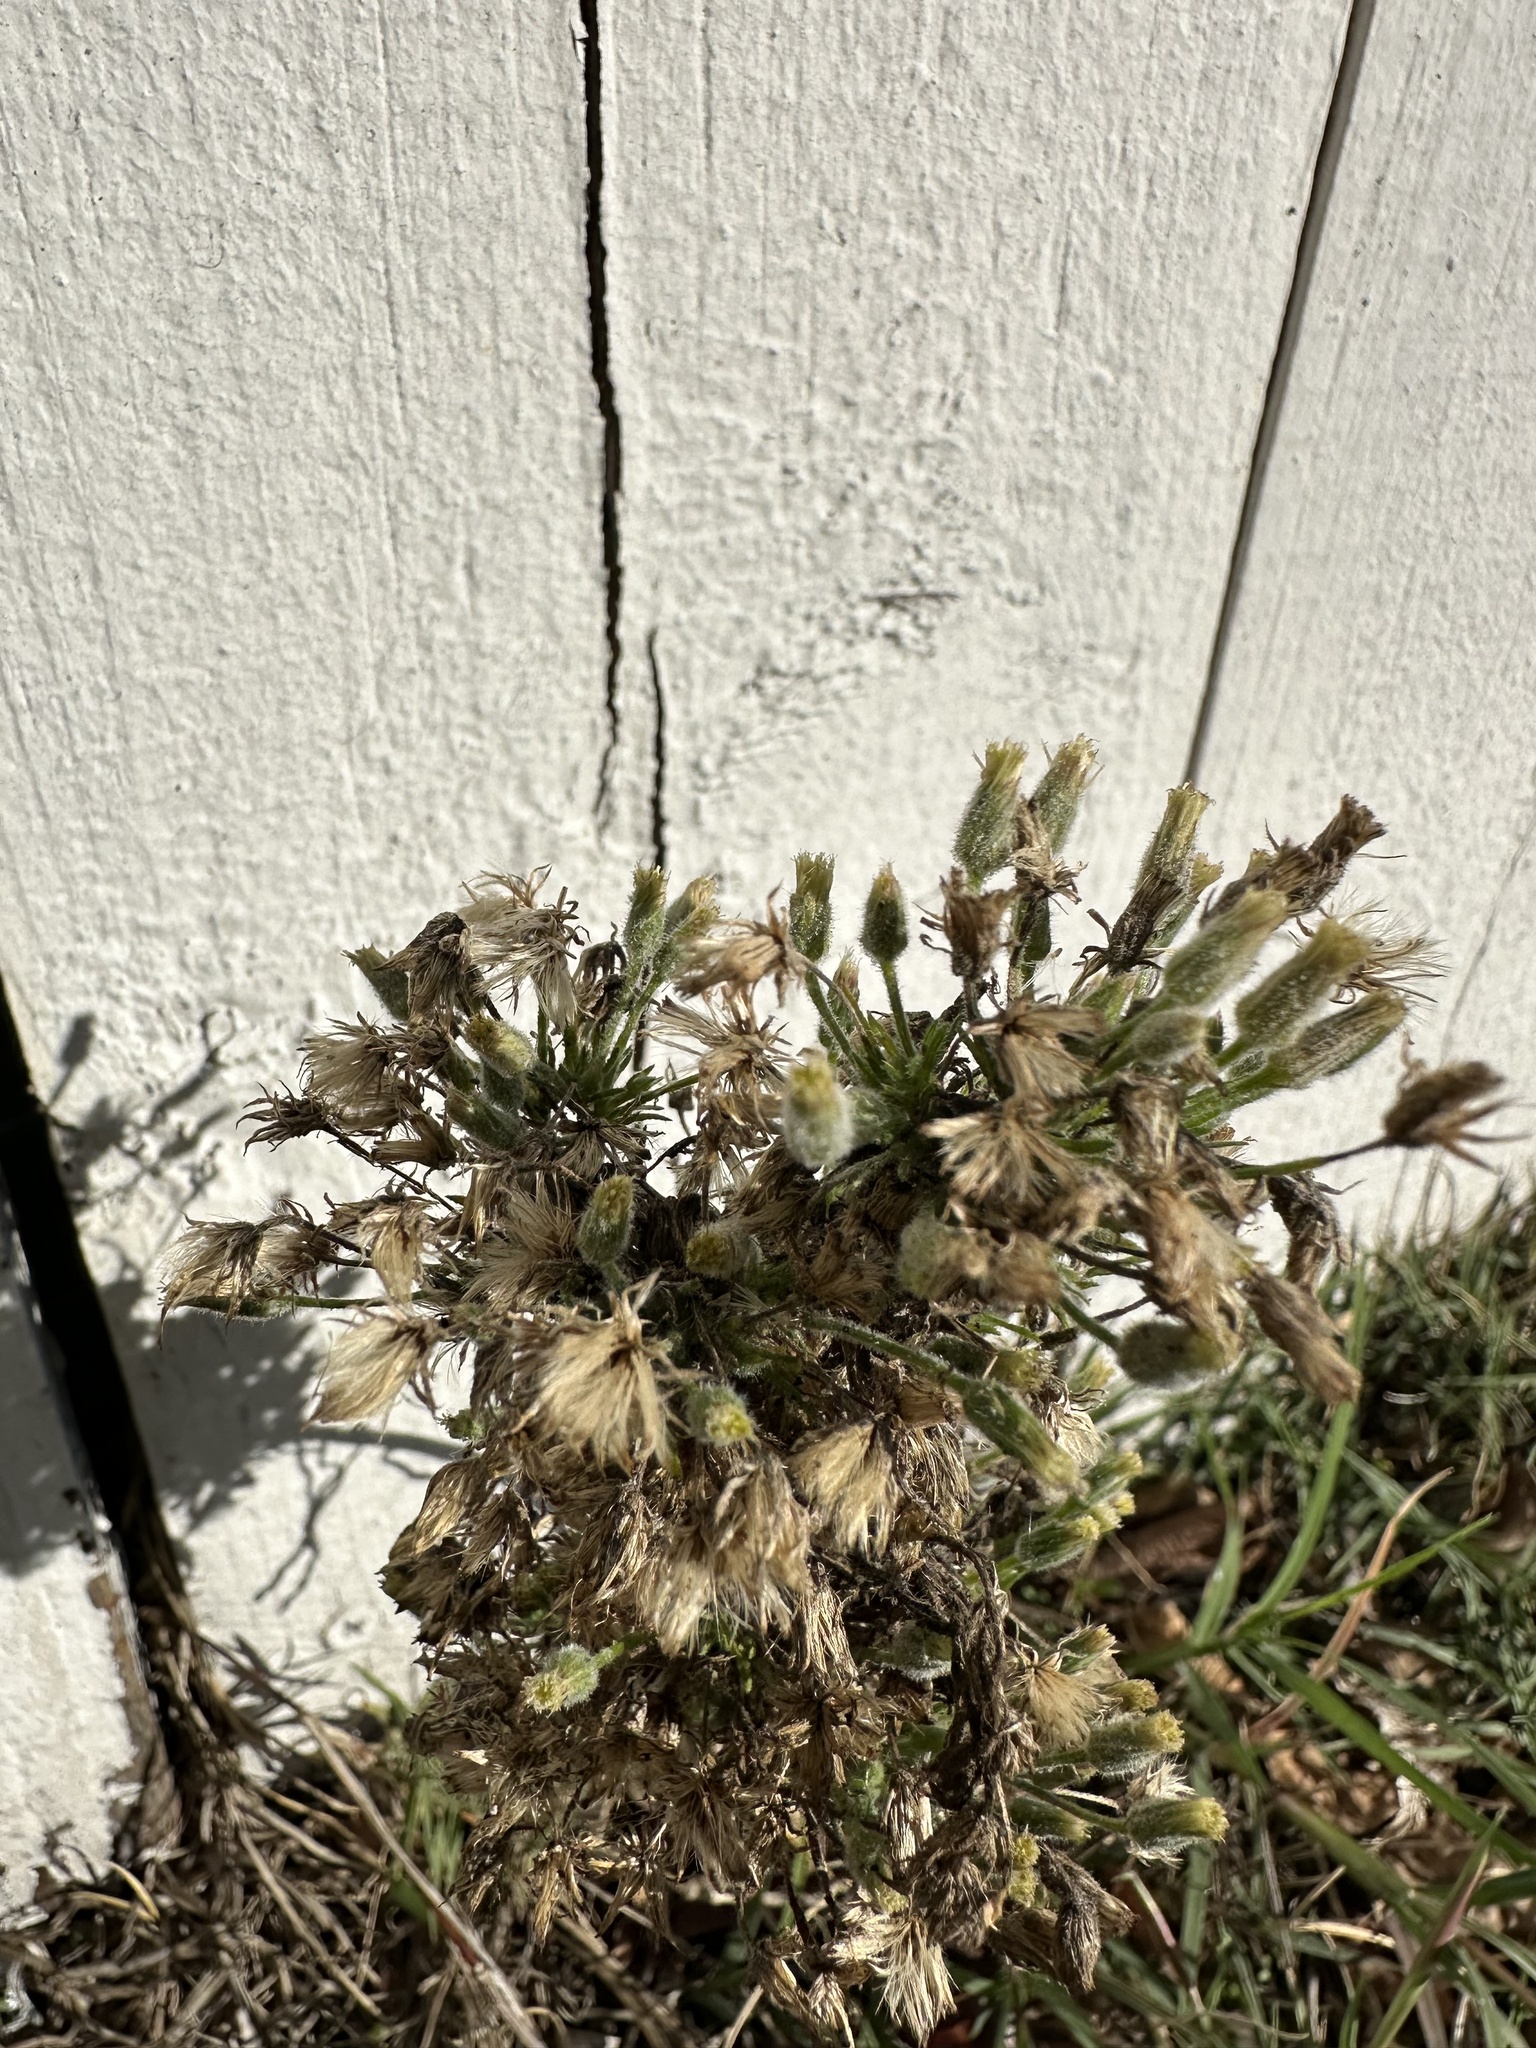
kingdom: Plantae
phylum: Tracheophyta
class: Magnoliopsida
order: Asterales
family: Asteraceae
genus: Heterotheca
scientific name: Heterotheca grandiflora
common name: Telegraphweed
